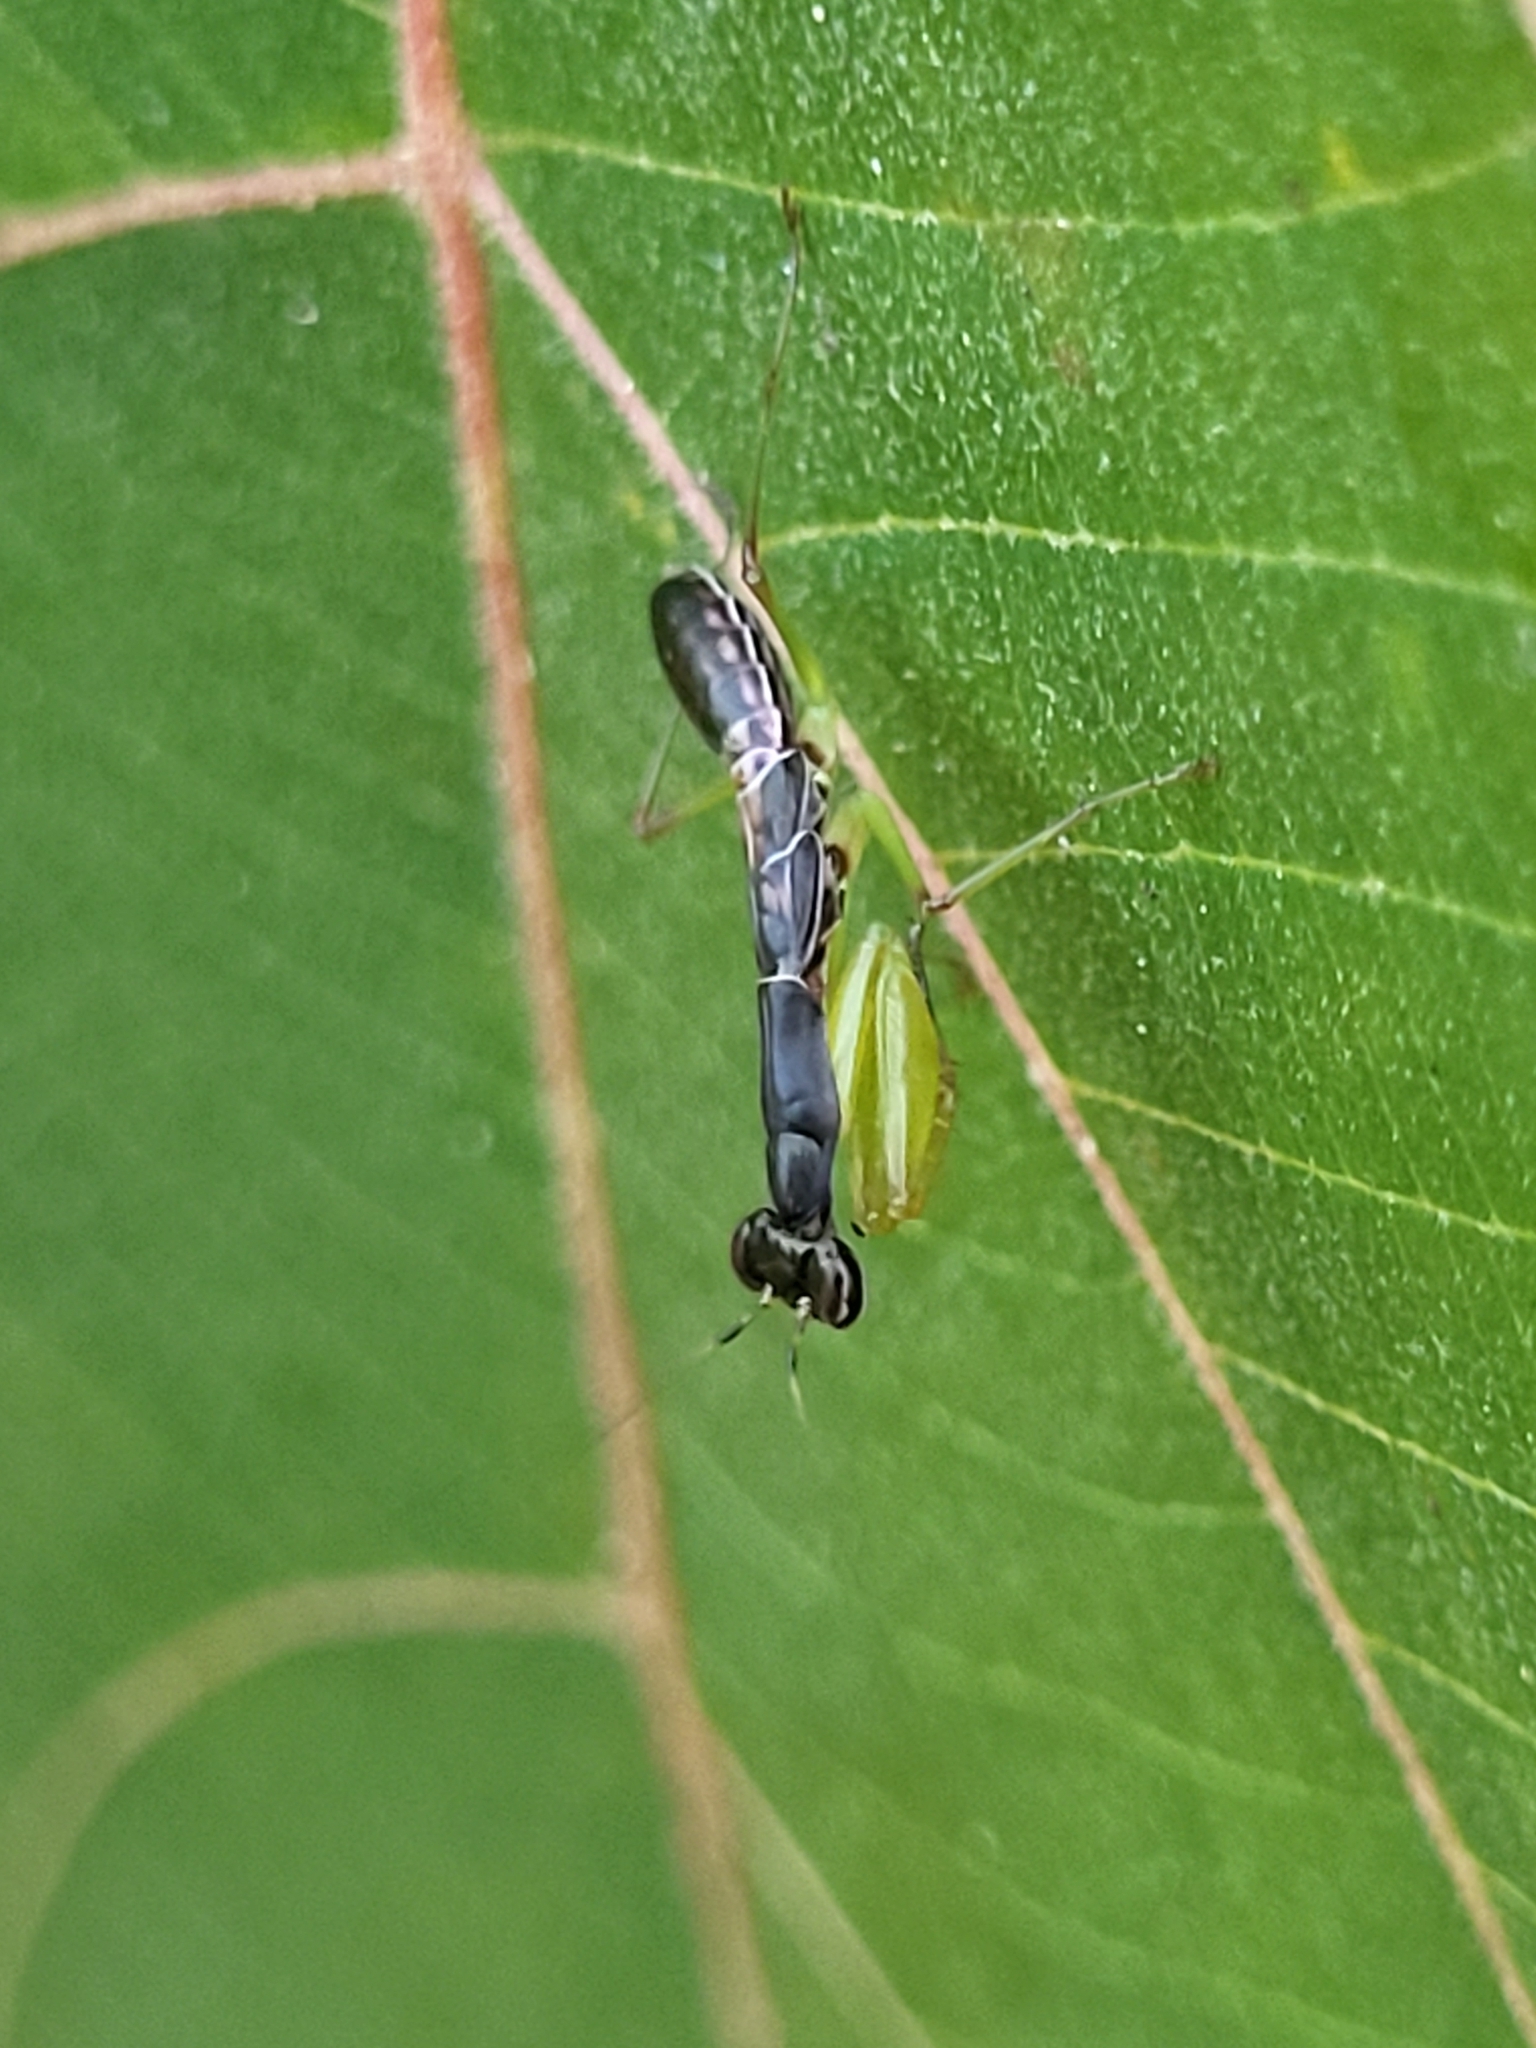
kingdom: Animalia
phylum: Arthropoda
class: Insecta
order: Mantodea
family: Hymenopodidae
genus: Odontomantis
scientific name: Odontomantis planiceps
